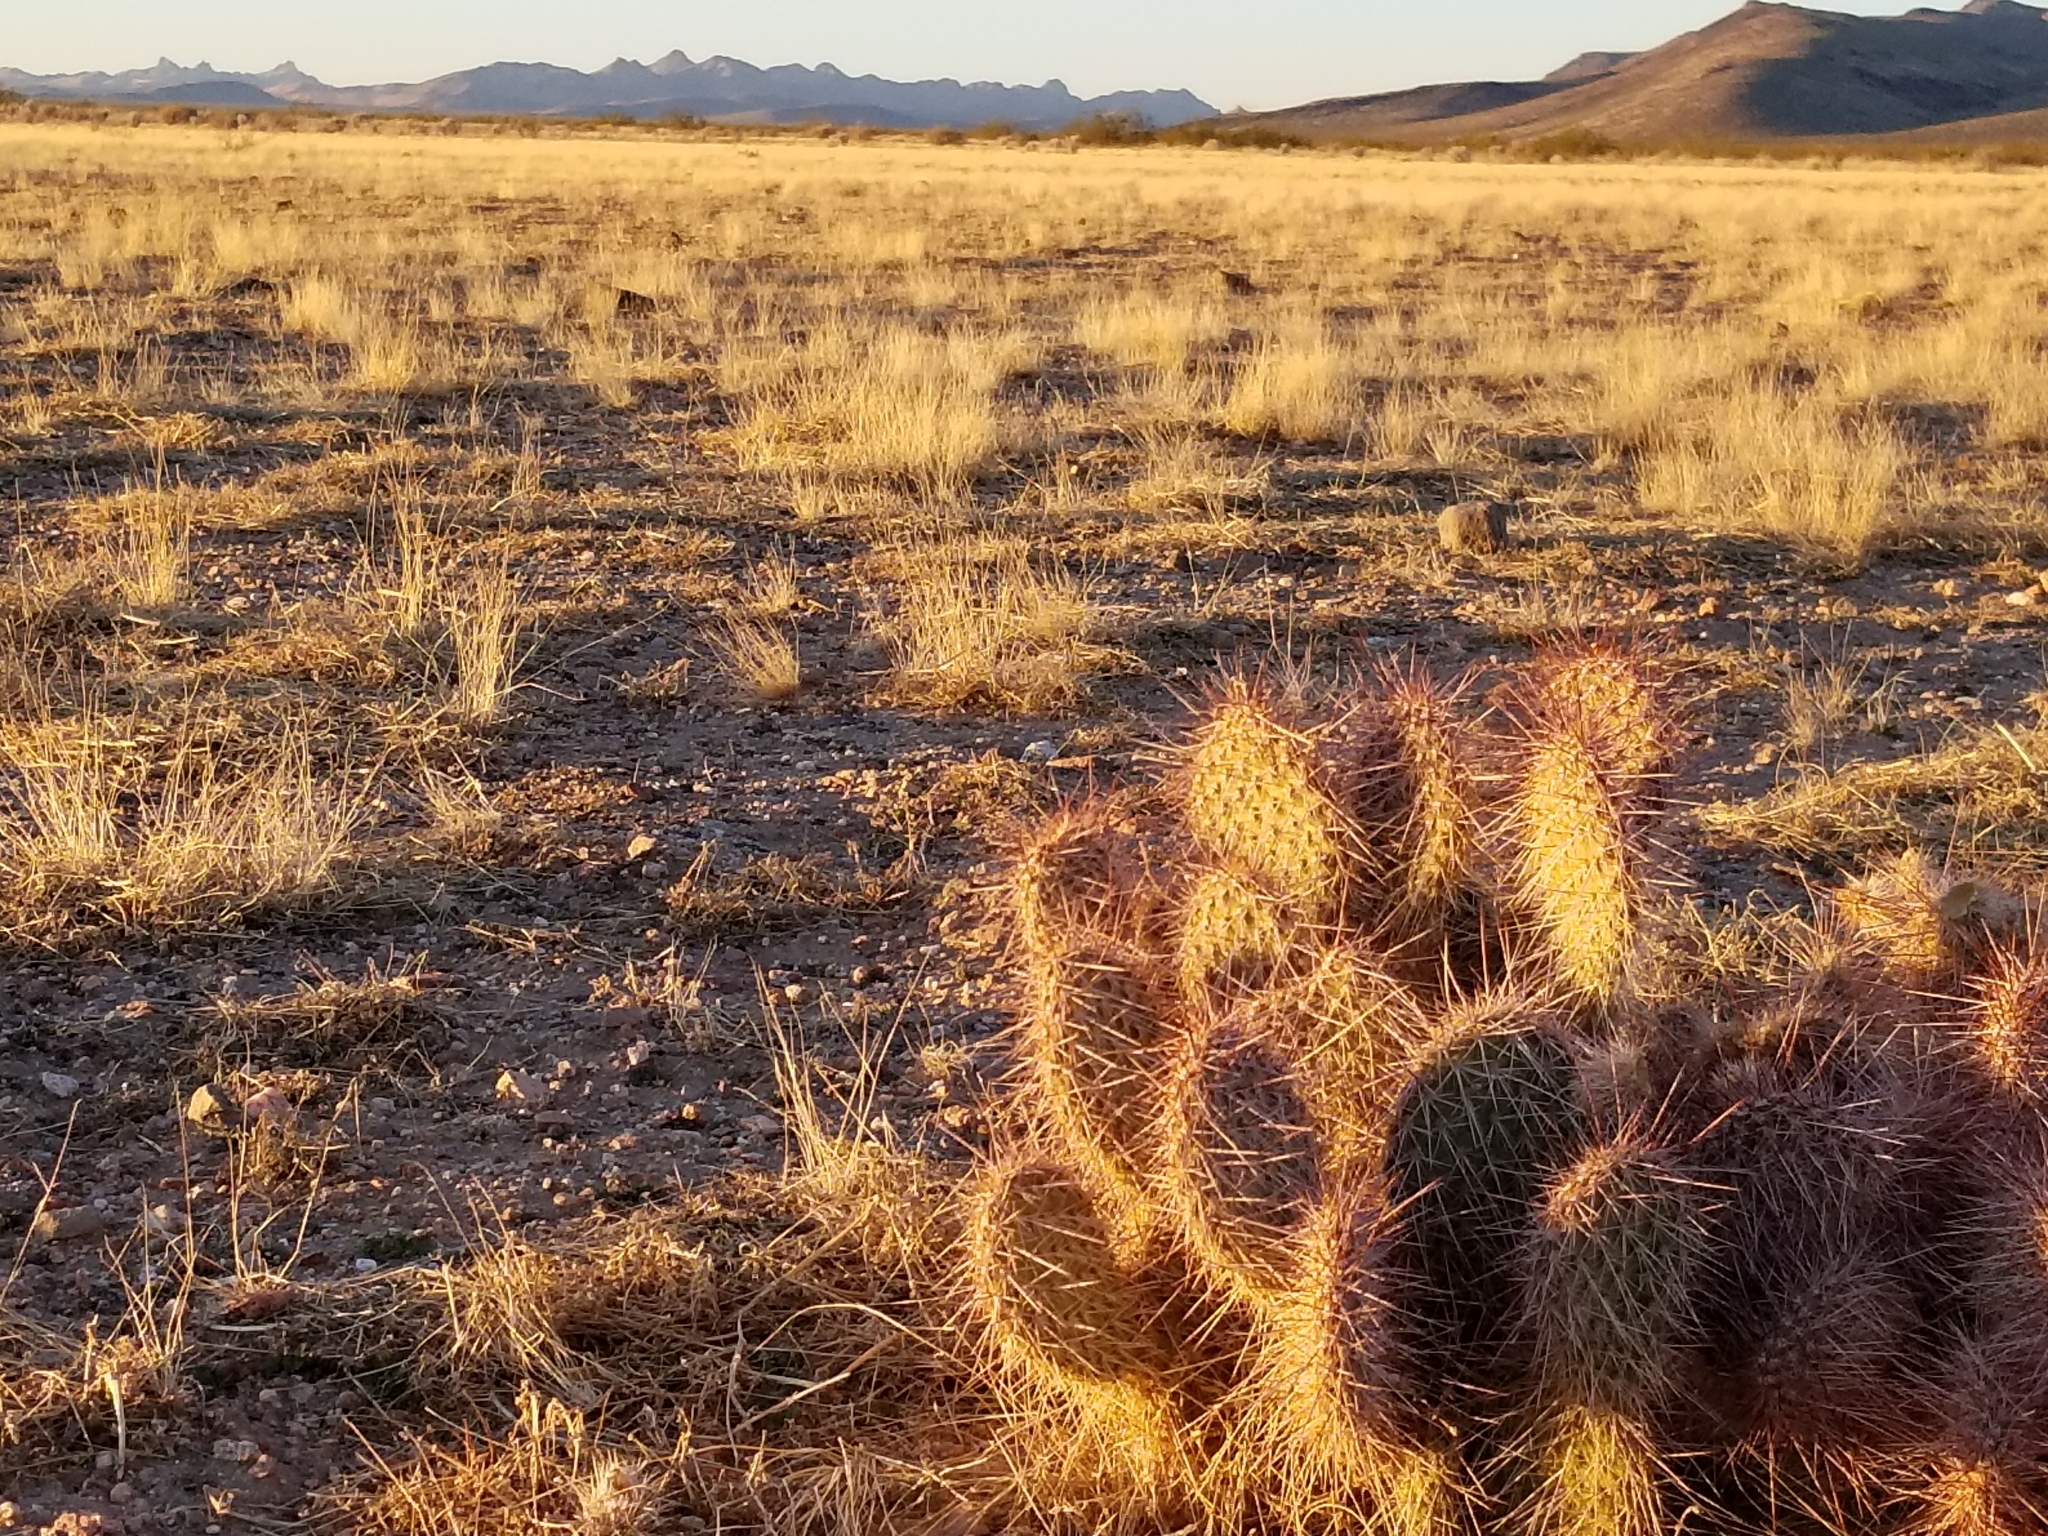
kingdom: Plantae
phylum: Tracheophyta
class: Magnoliopsida
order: Caryophyllales
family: Cactaceae
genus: Opuntia
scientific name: Opuntia polyacantha
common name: Plains prickly-pear
